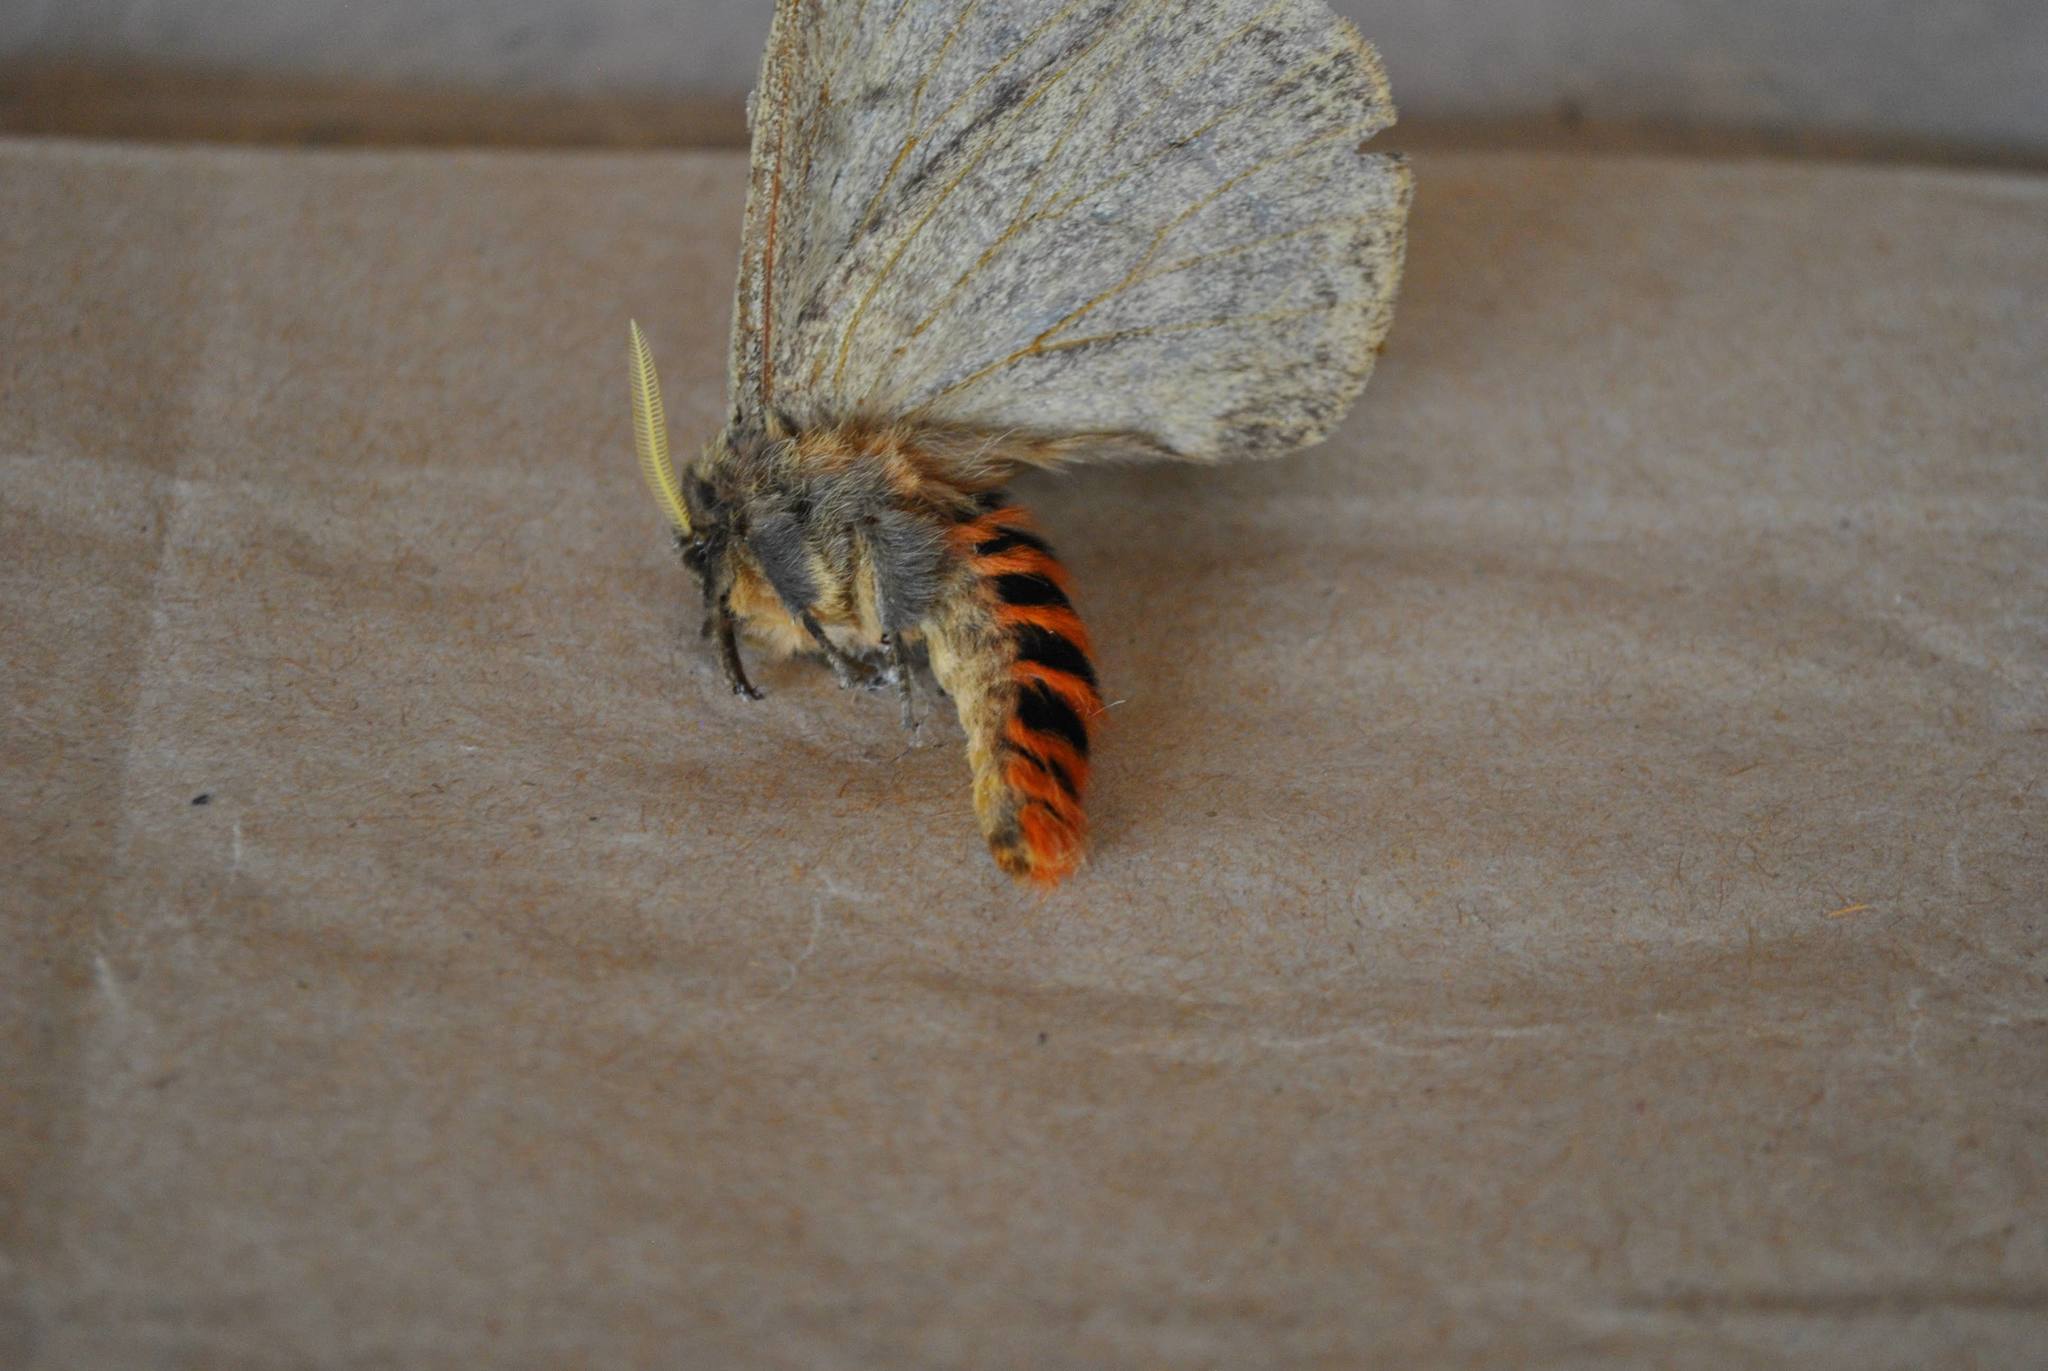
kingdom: Animalia
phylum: Arthropoda
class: Insecta
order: Lepidoptera
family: Saturniidae
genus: Dirphia
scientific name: Dirphia muscosa
